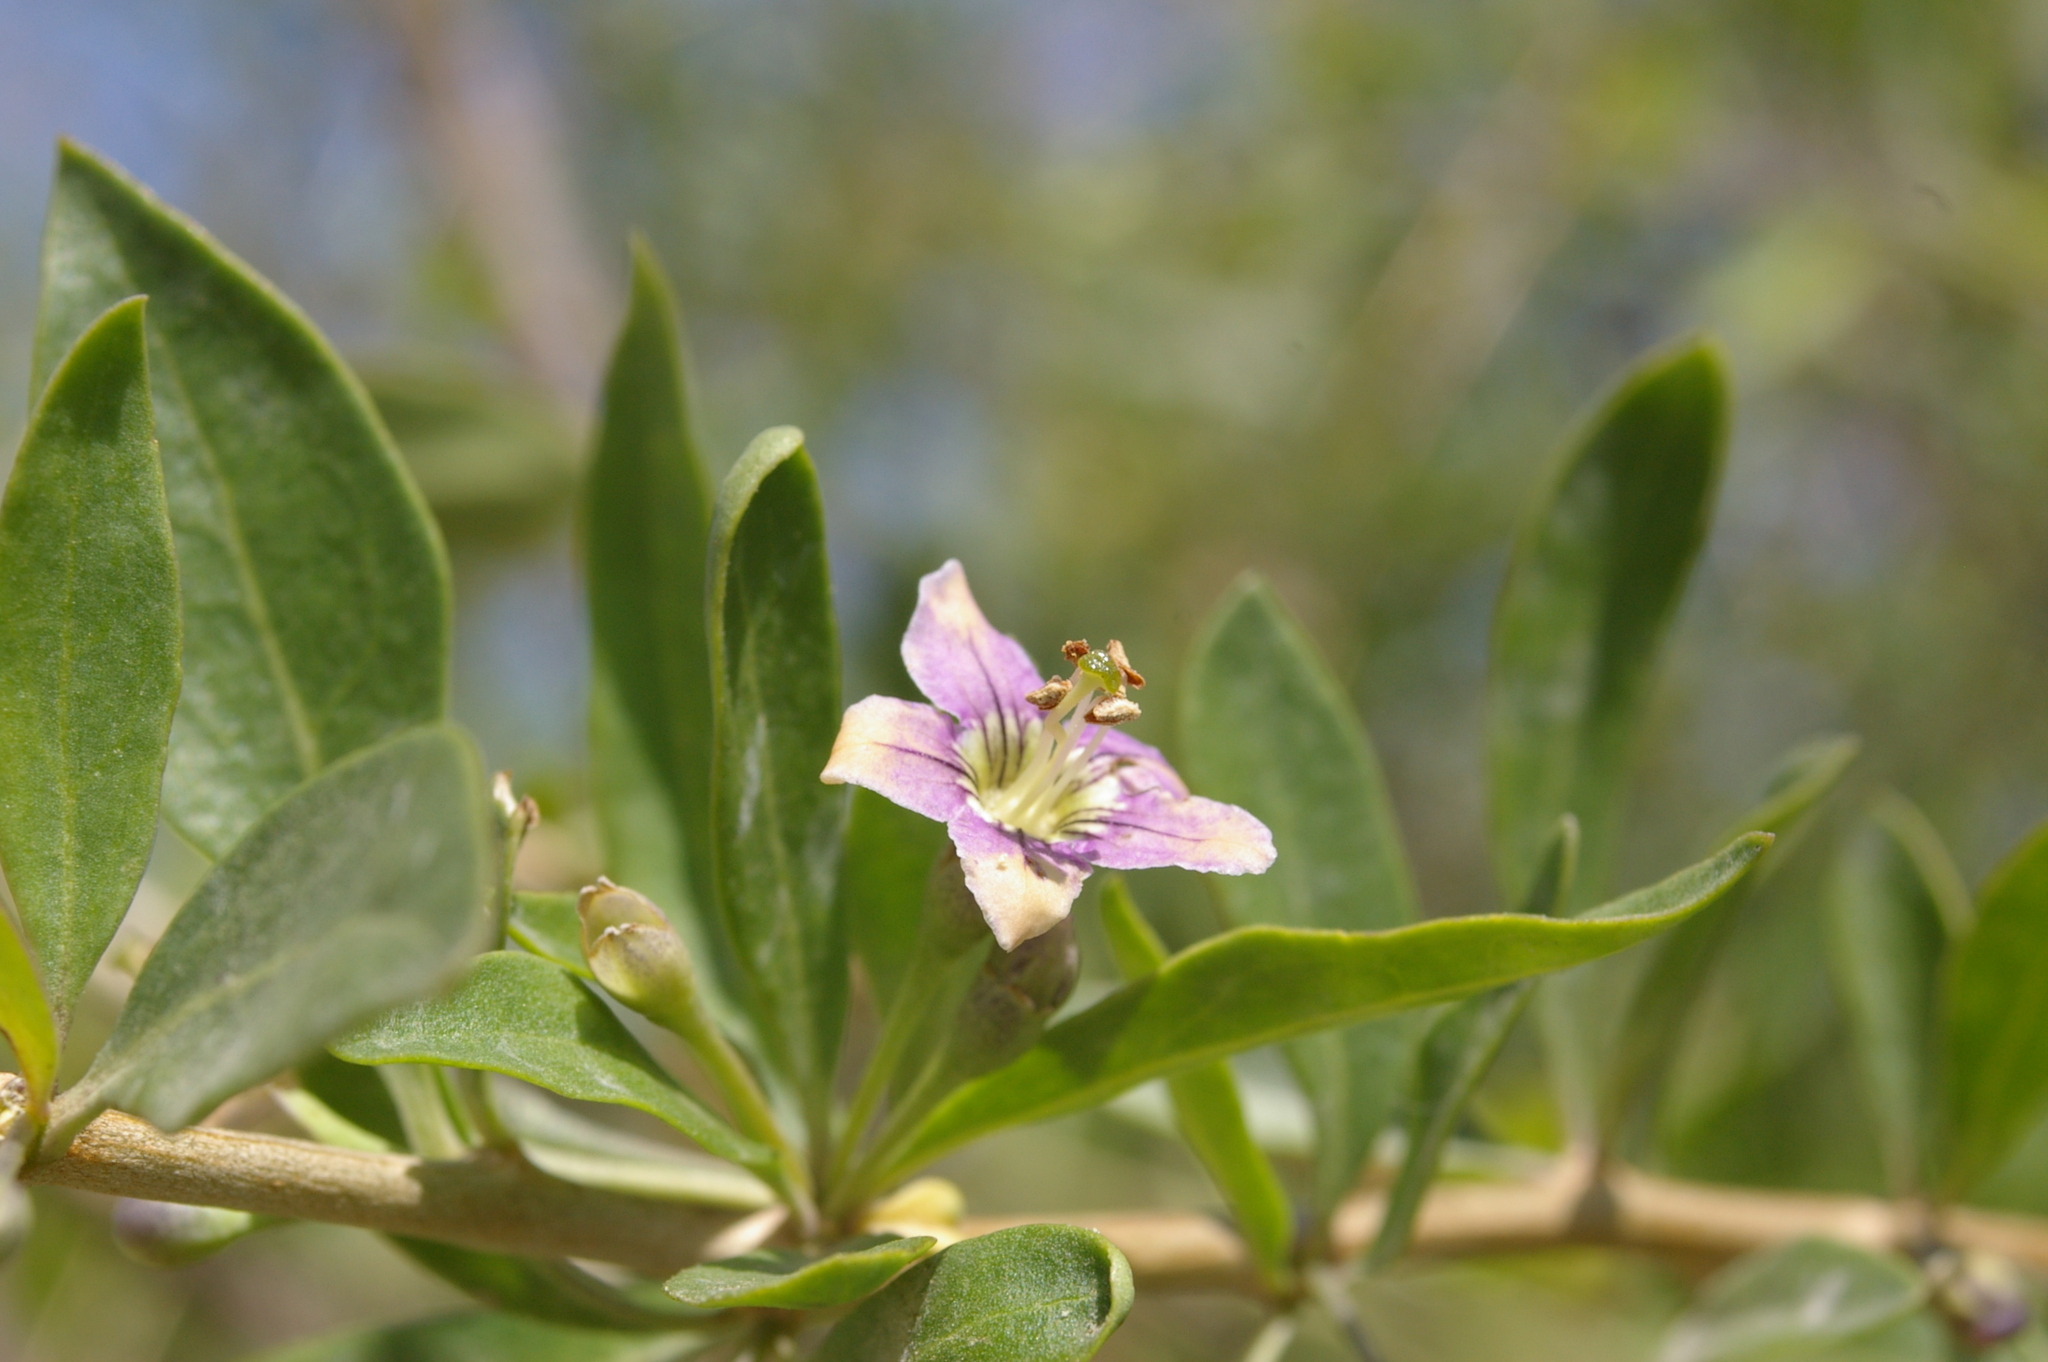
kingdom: Plantae
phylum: Tracheophyta
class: Magnoliopsida
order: Solanales
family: Solanaceae
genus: Lycium
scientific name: Lycium barbarum
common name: Duke of argyll's teaplant
